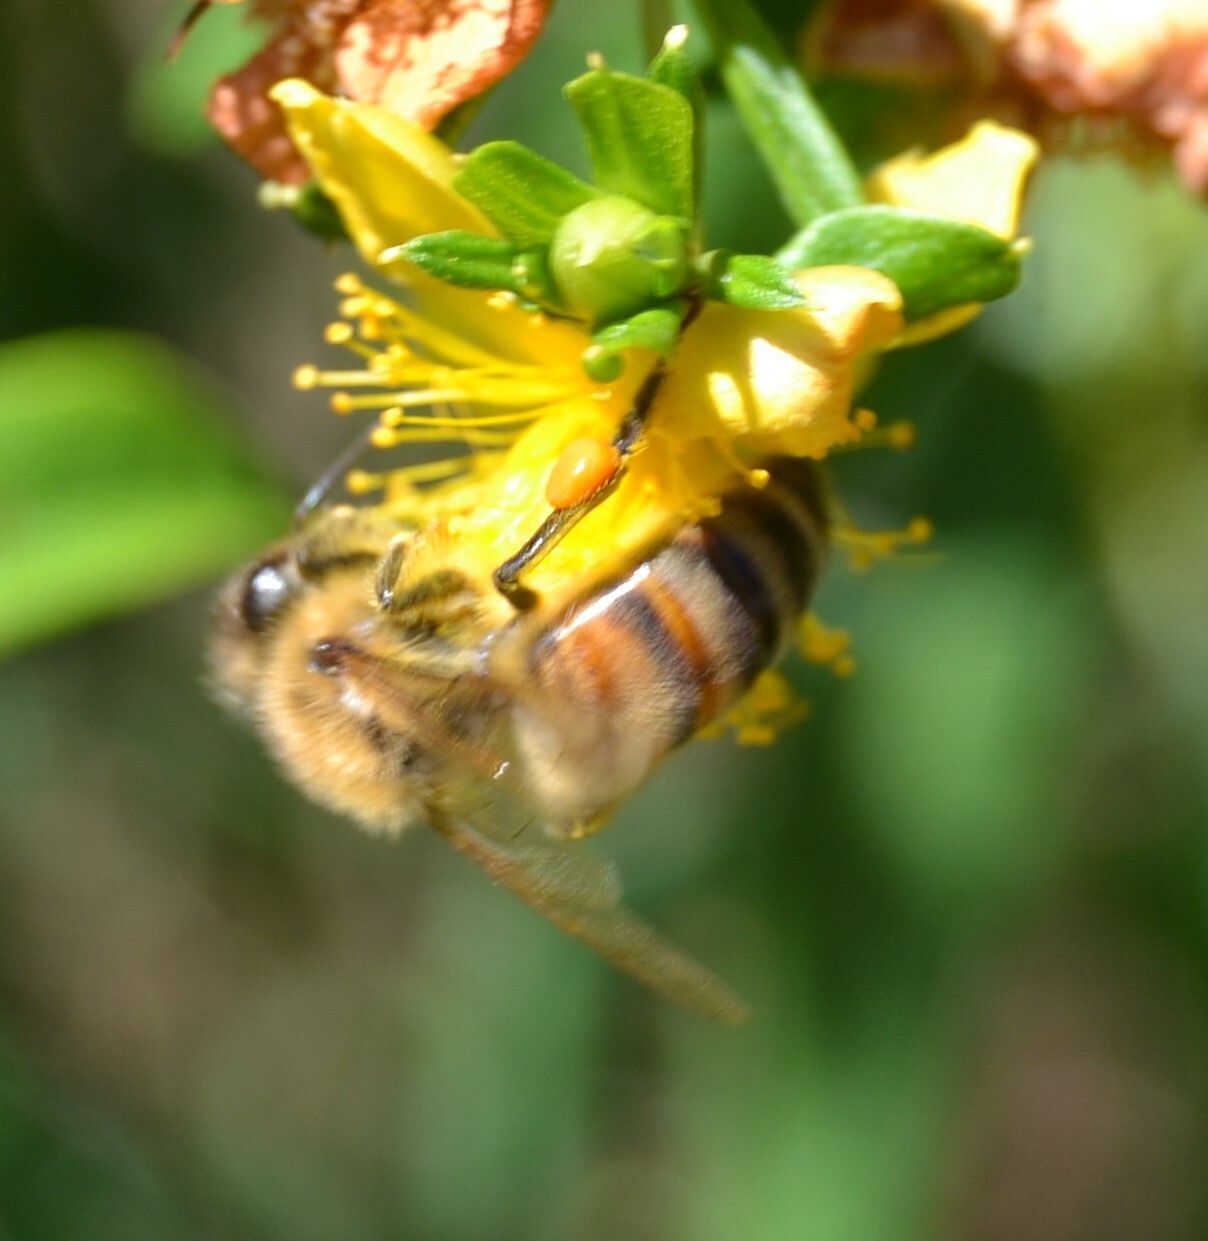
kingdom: Animalia
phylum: Arthropoda
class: Insecta
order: Hymenoptera
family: Apidae
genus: Apis
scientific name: Apis mellifera
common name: Honey bee
